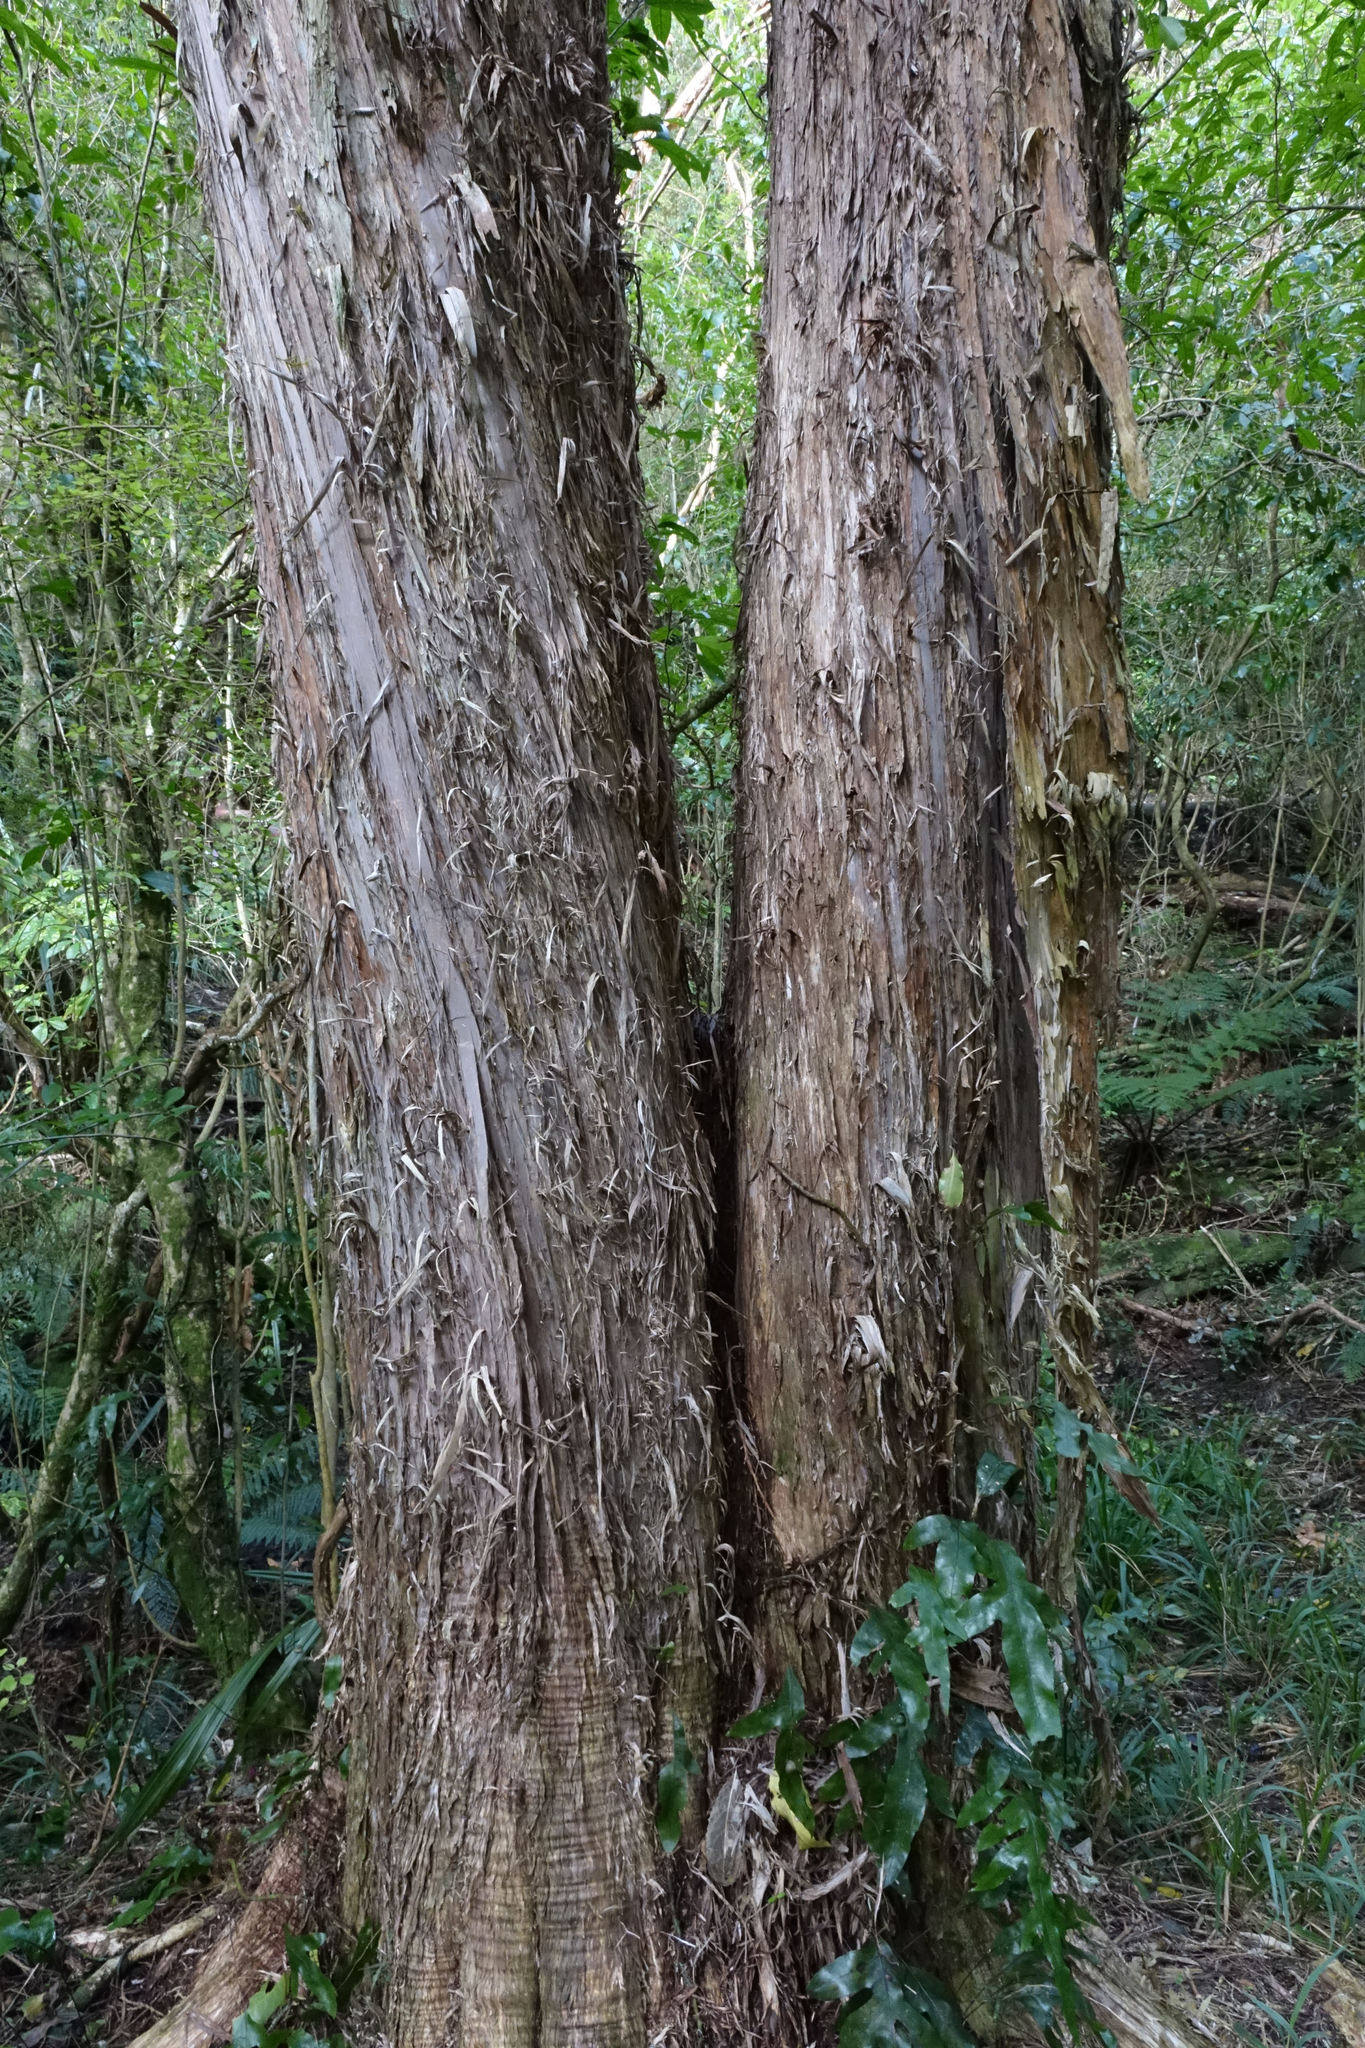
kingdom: Plantae
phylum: Tracheophyta
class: Magnoliopsida
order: Myrtales
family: Myrtaceae
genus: Kunzea
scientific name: Kunzea robusta
